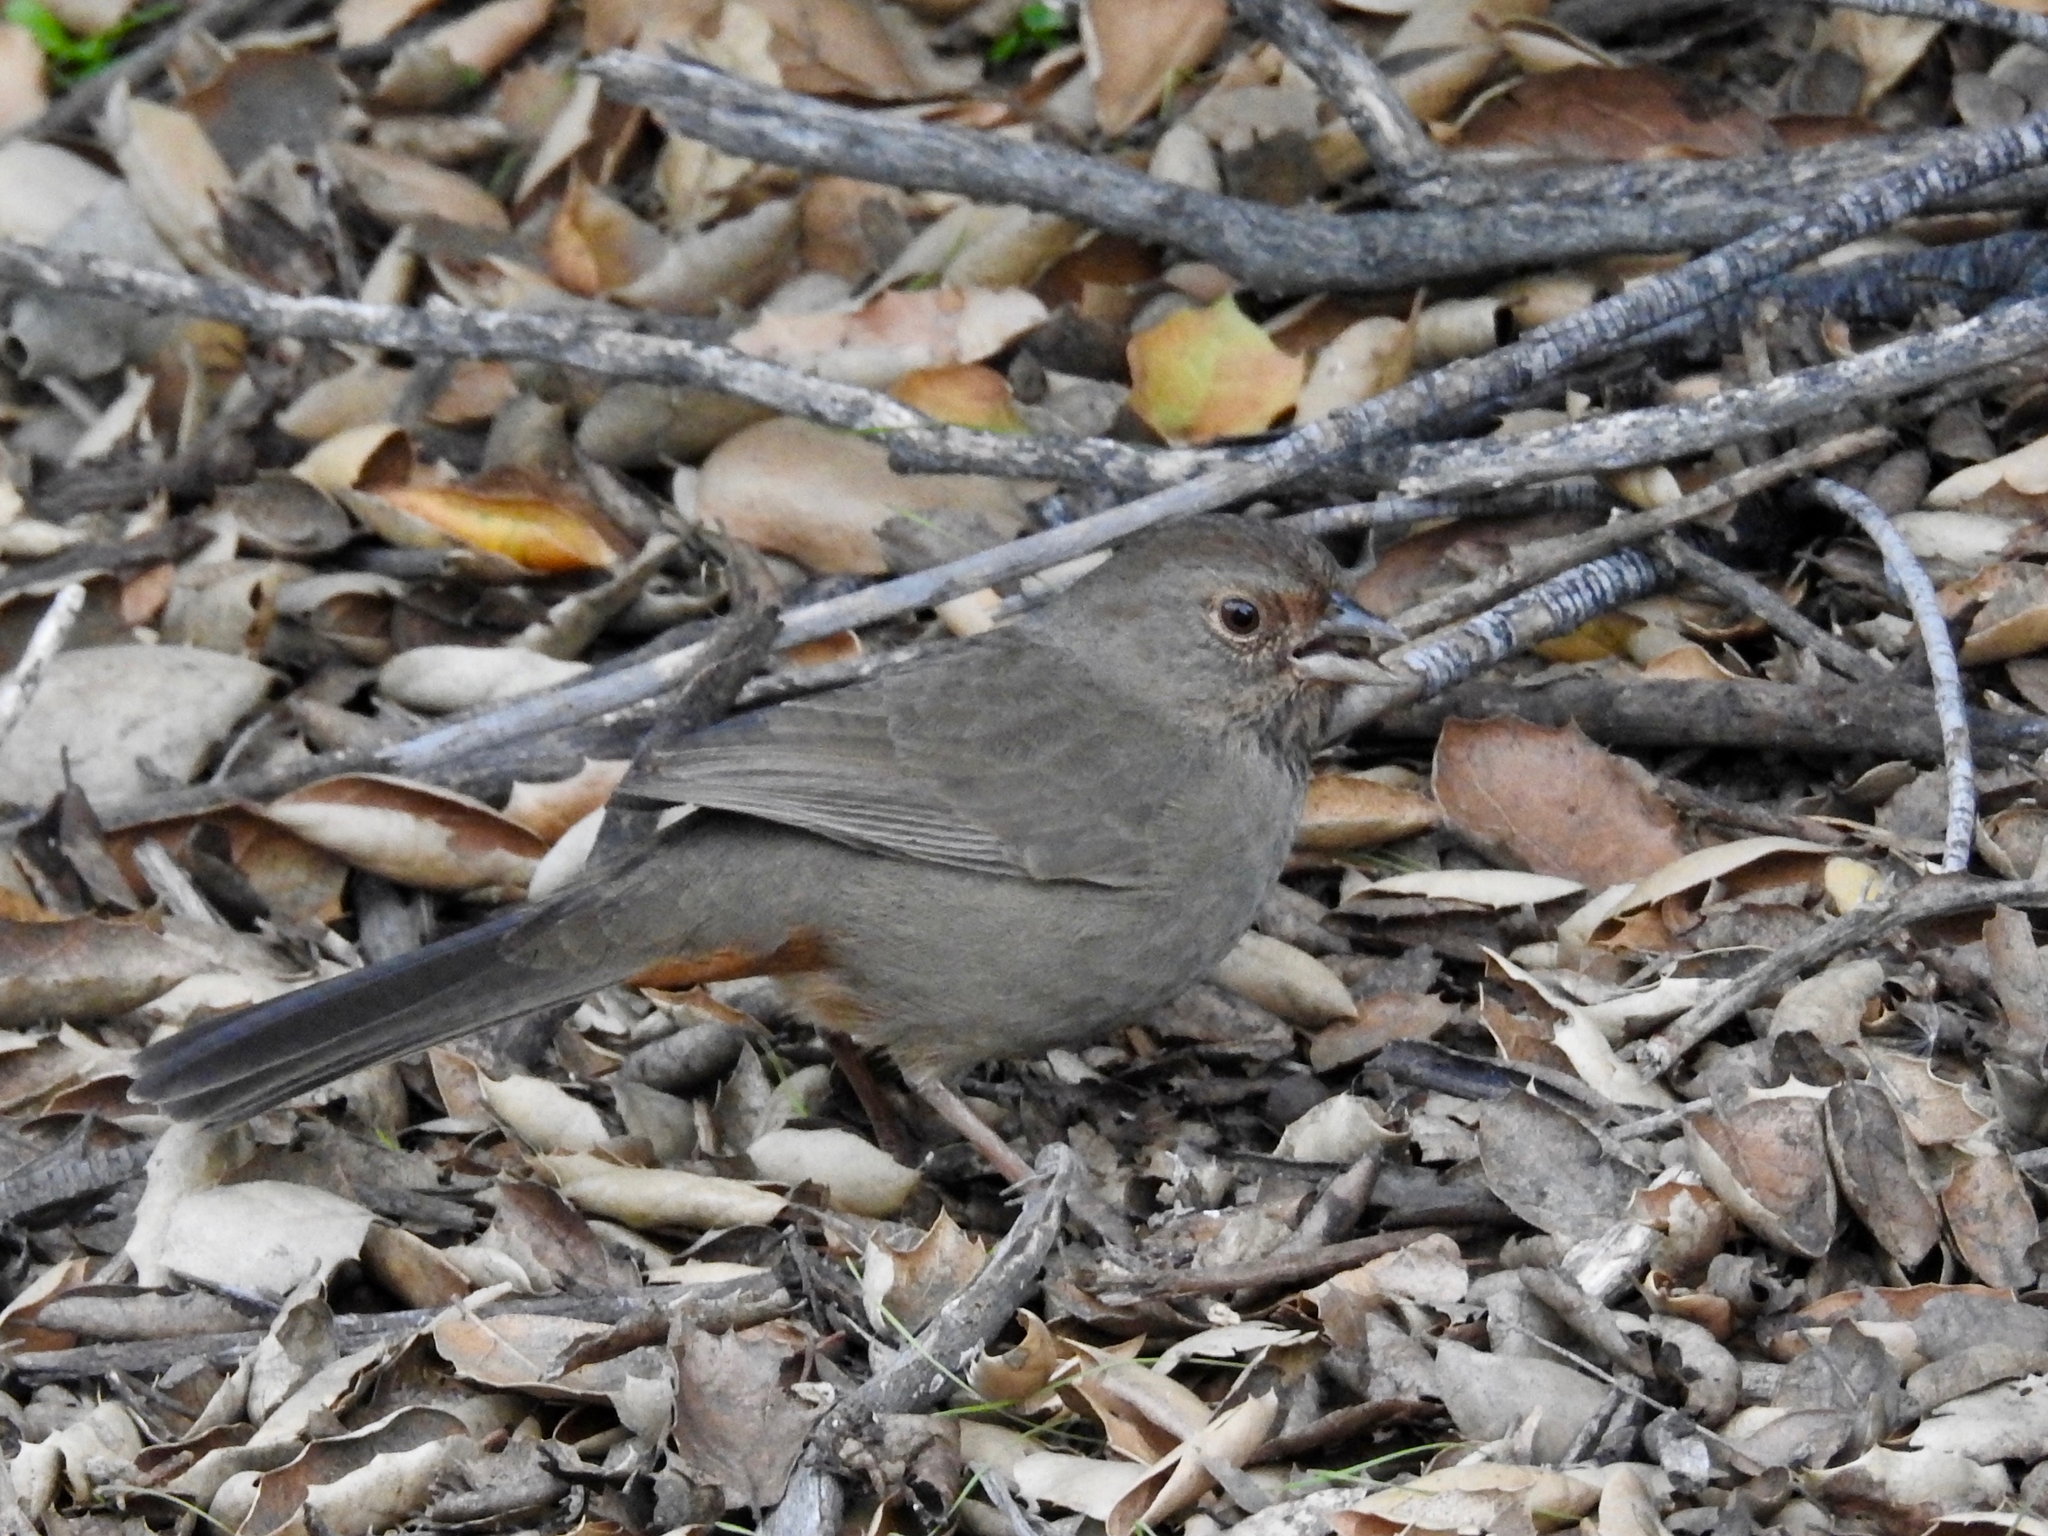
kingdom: Animalia
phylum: Chordata
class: Aves
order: Passeriformes
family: Passerellidae
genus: Melozone
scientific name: Melozone crissalis
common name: California towhee
